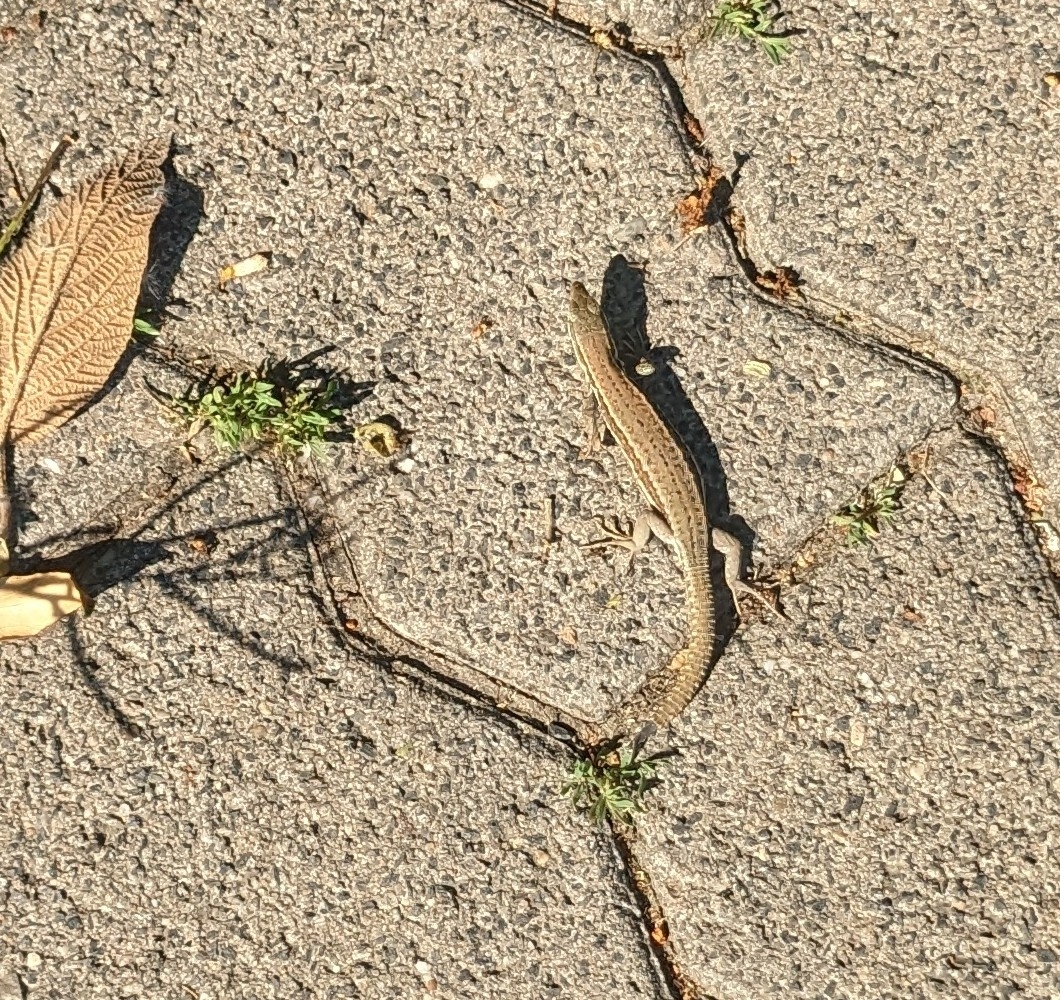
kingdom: Animalia
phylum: Chordata
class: Squamata
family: Lacertidae
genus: Podarcis
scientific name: Podarcis muralis
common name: Common wall lizard
